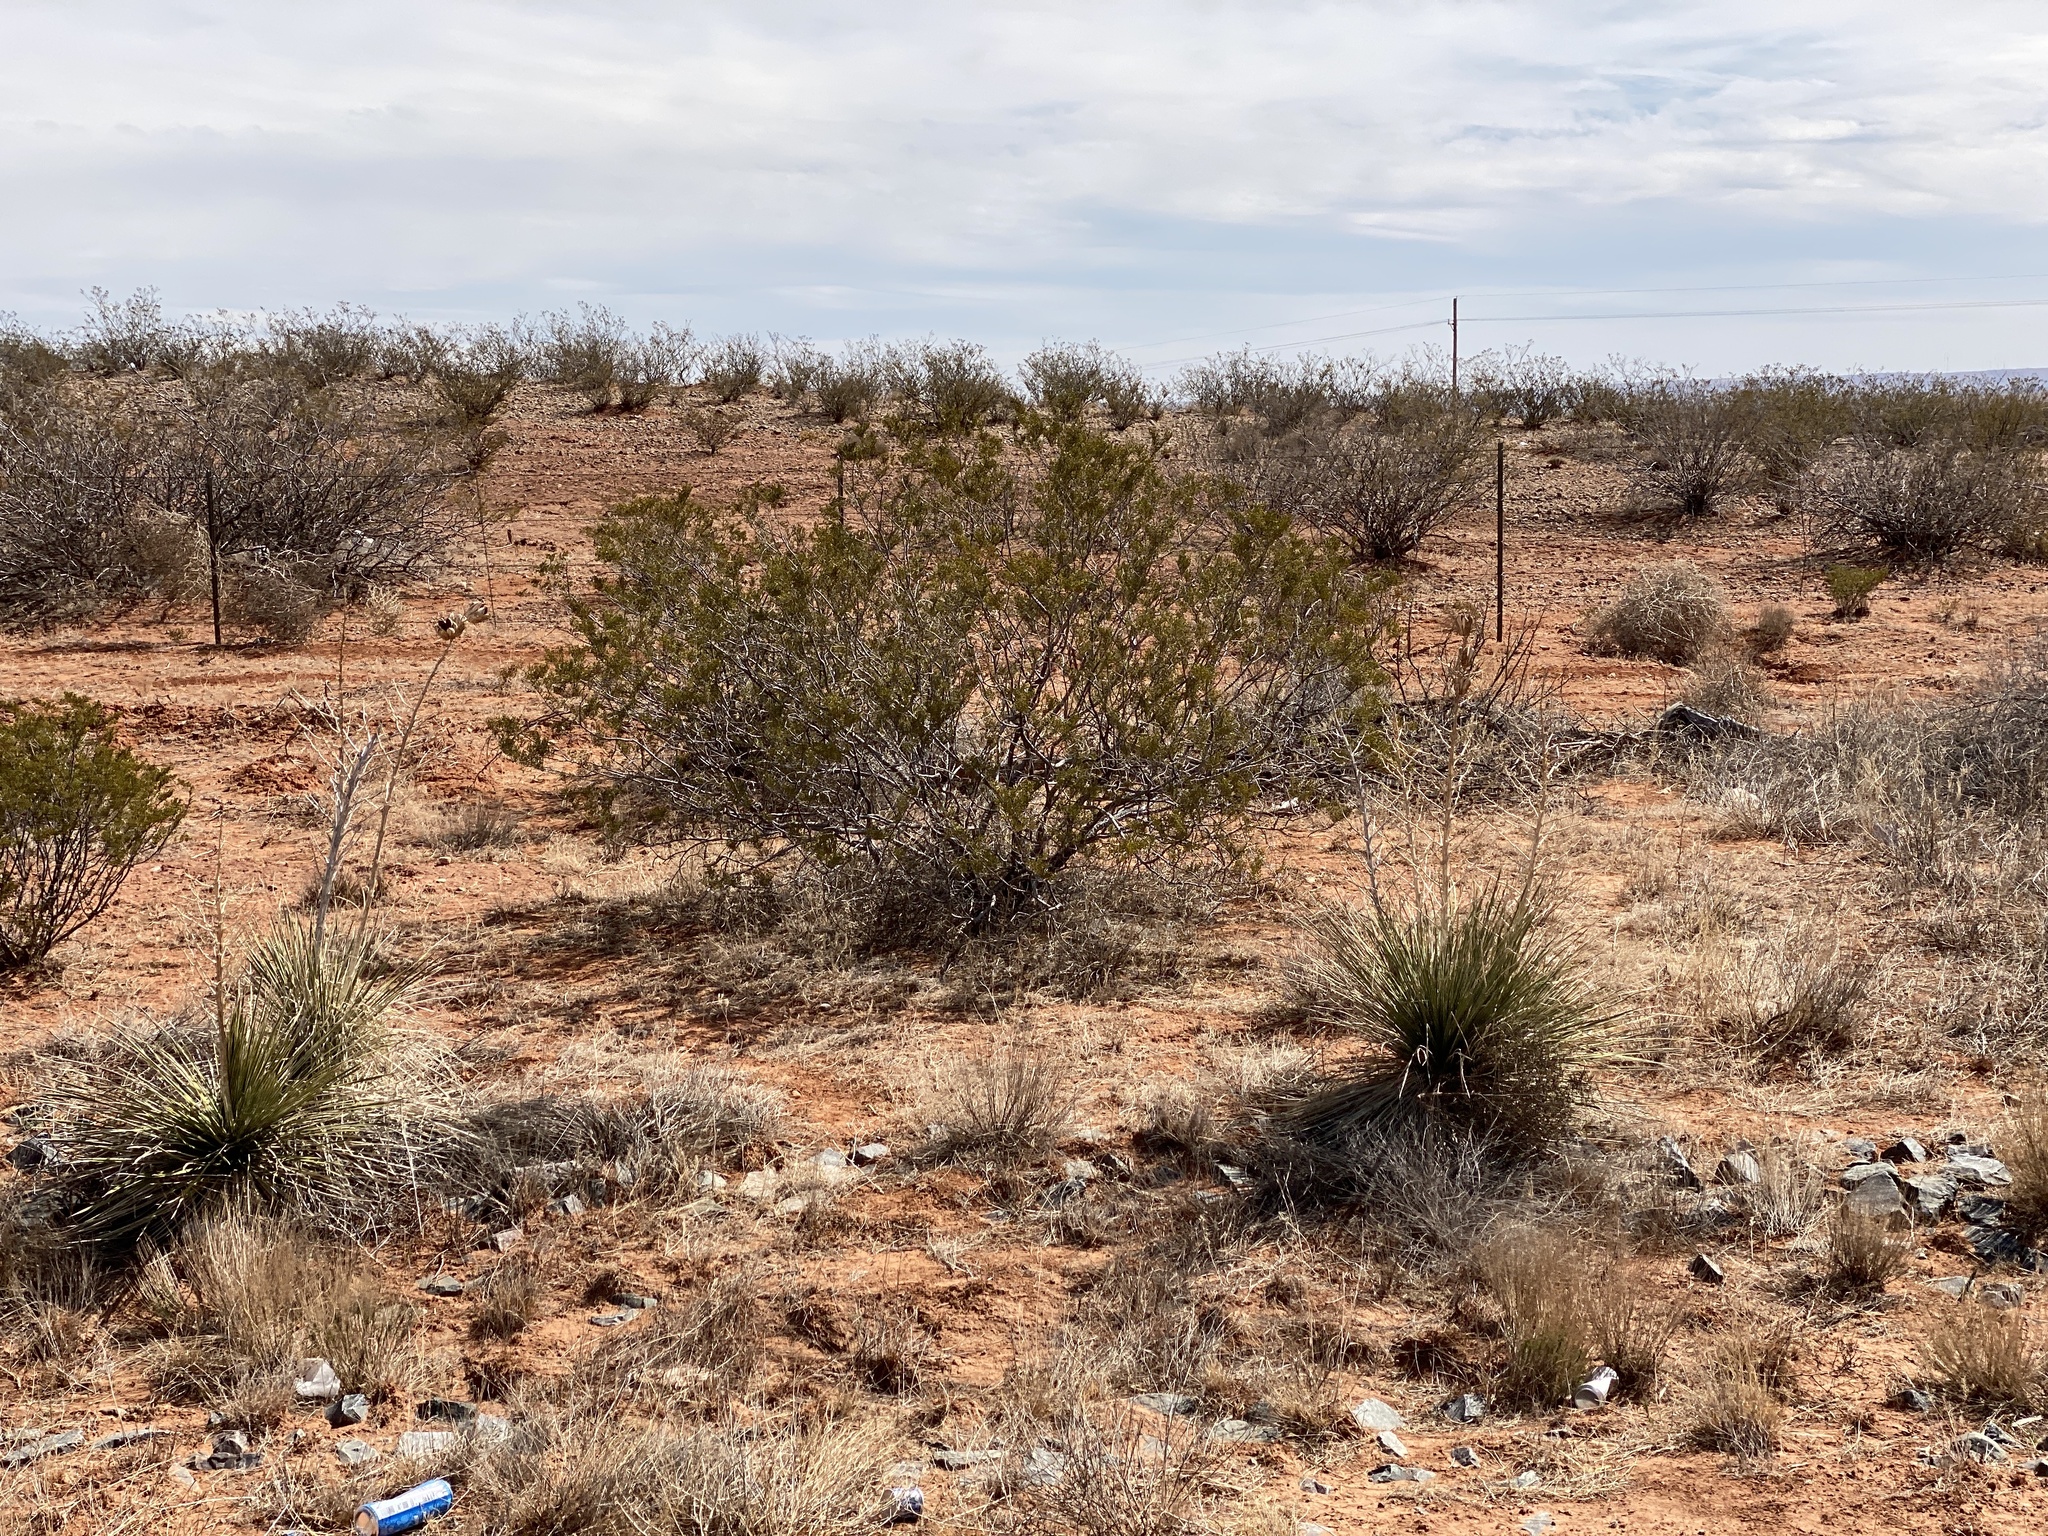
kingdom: Plantae
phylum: Tracheophyta
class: Magnoliopsida
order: Zygophyllales
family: Zygophyllaceae
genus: Larrea
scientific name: Larrea tridentata
